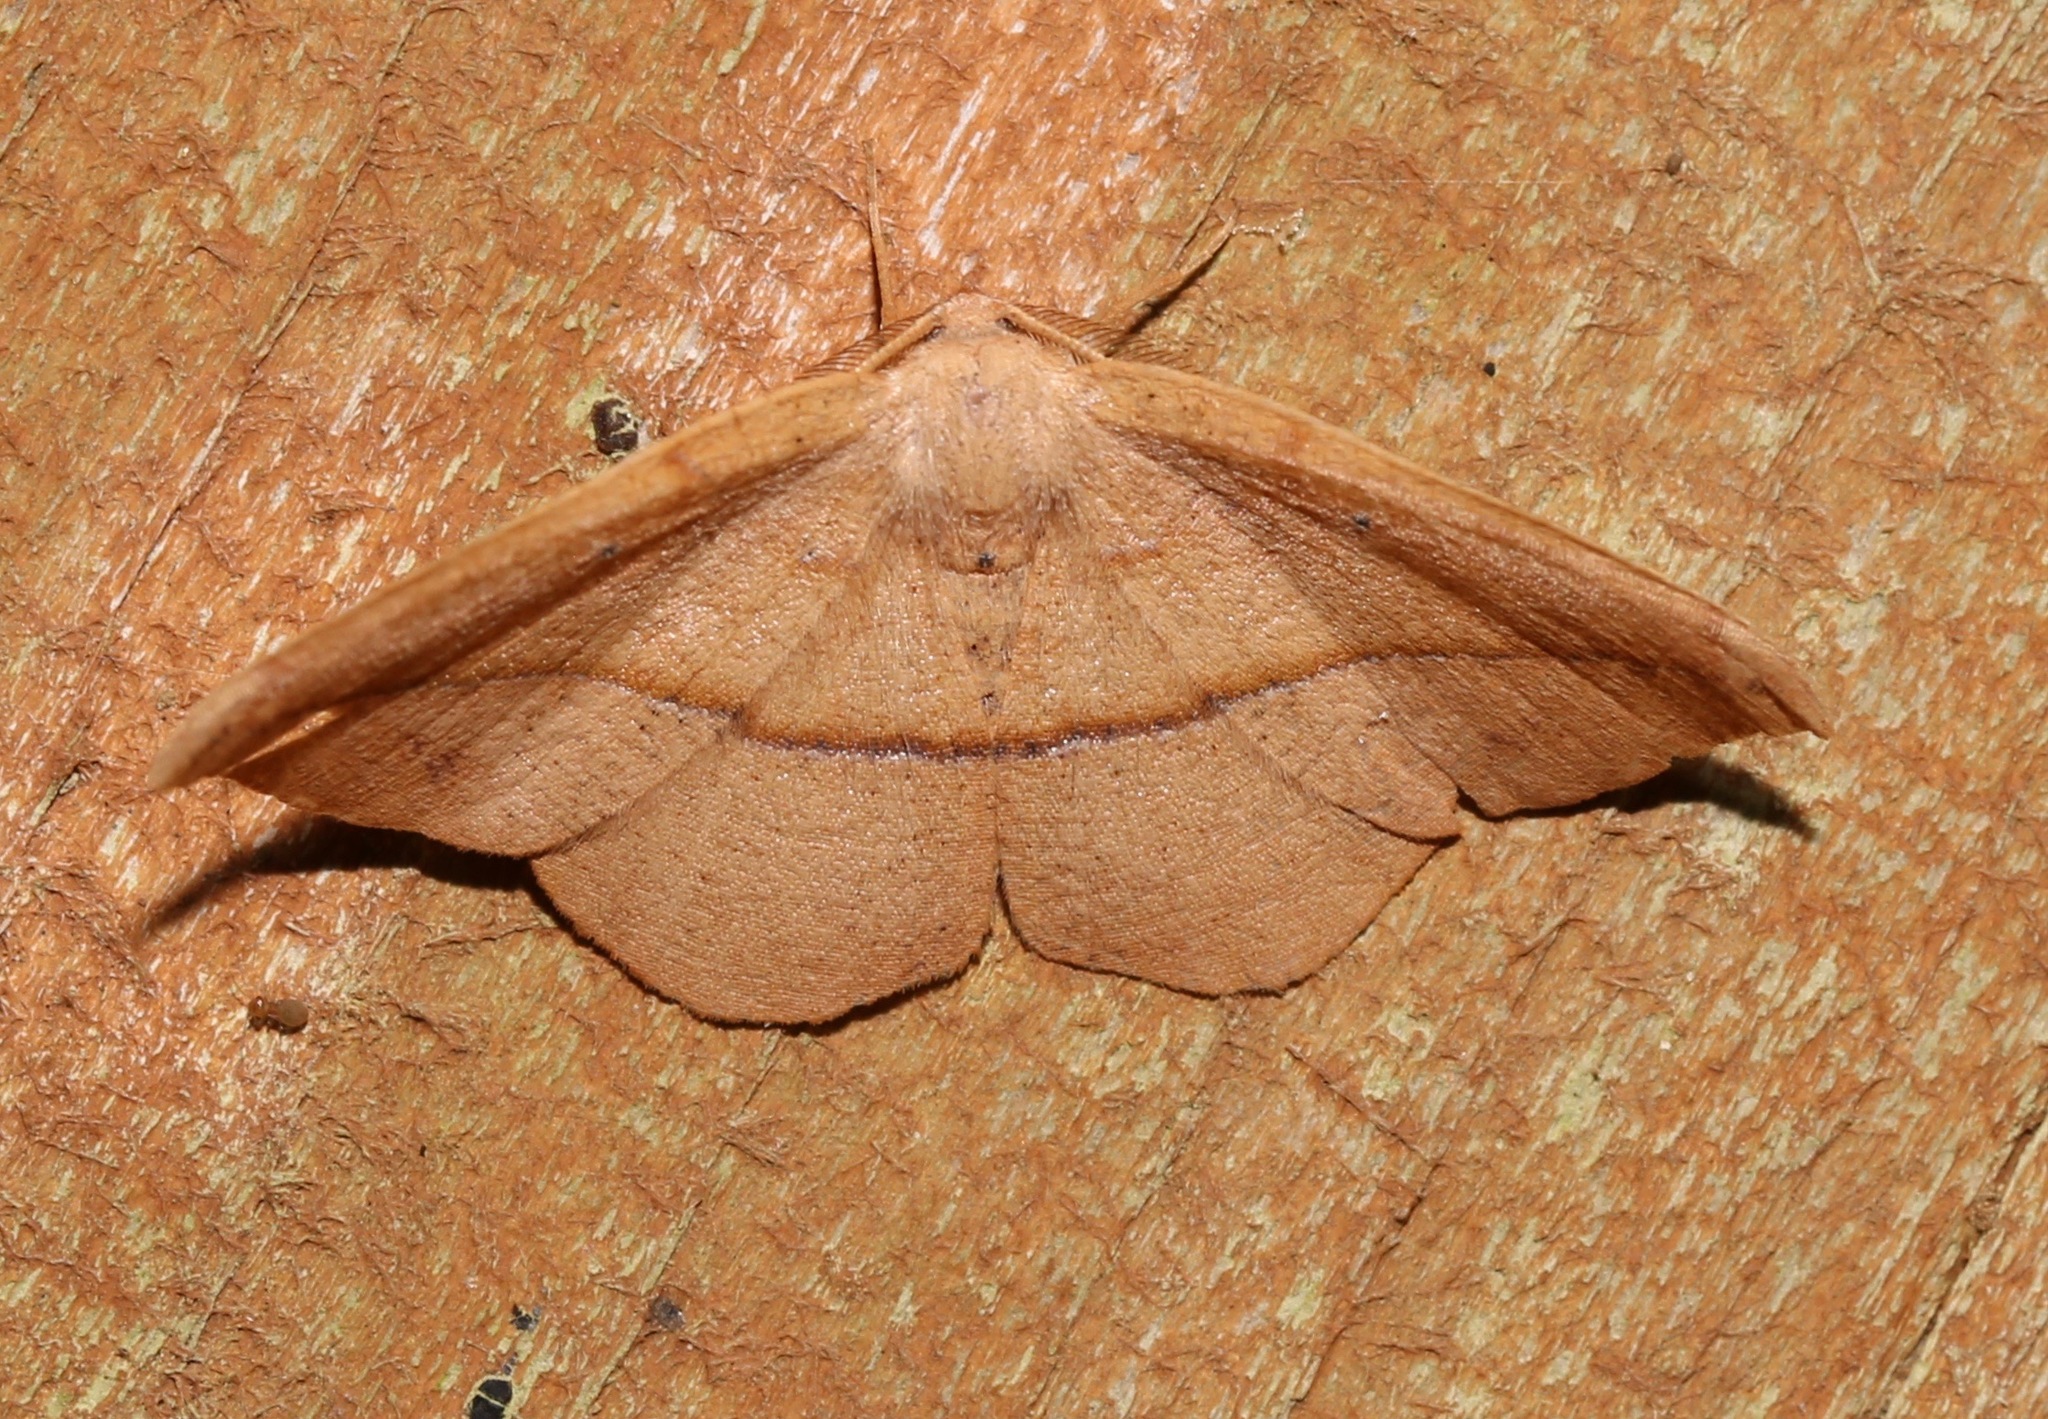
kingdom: Animalia
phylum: Arthropoda
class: Insecta
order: Lepidoptera
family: Geometridae
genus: Patalene
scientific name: Patalene olyzonaria
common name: Juniper geometer moth
